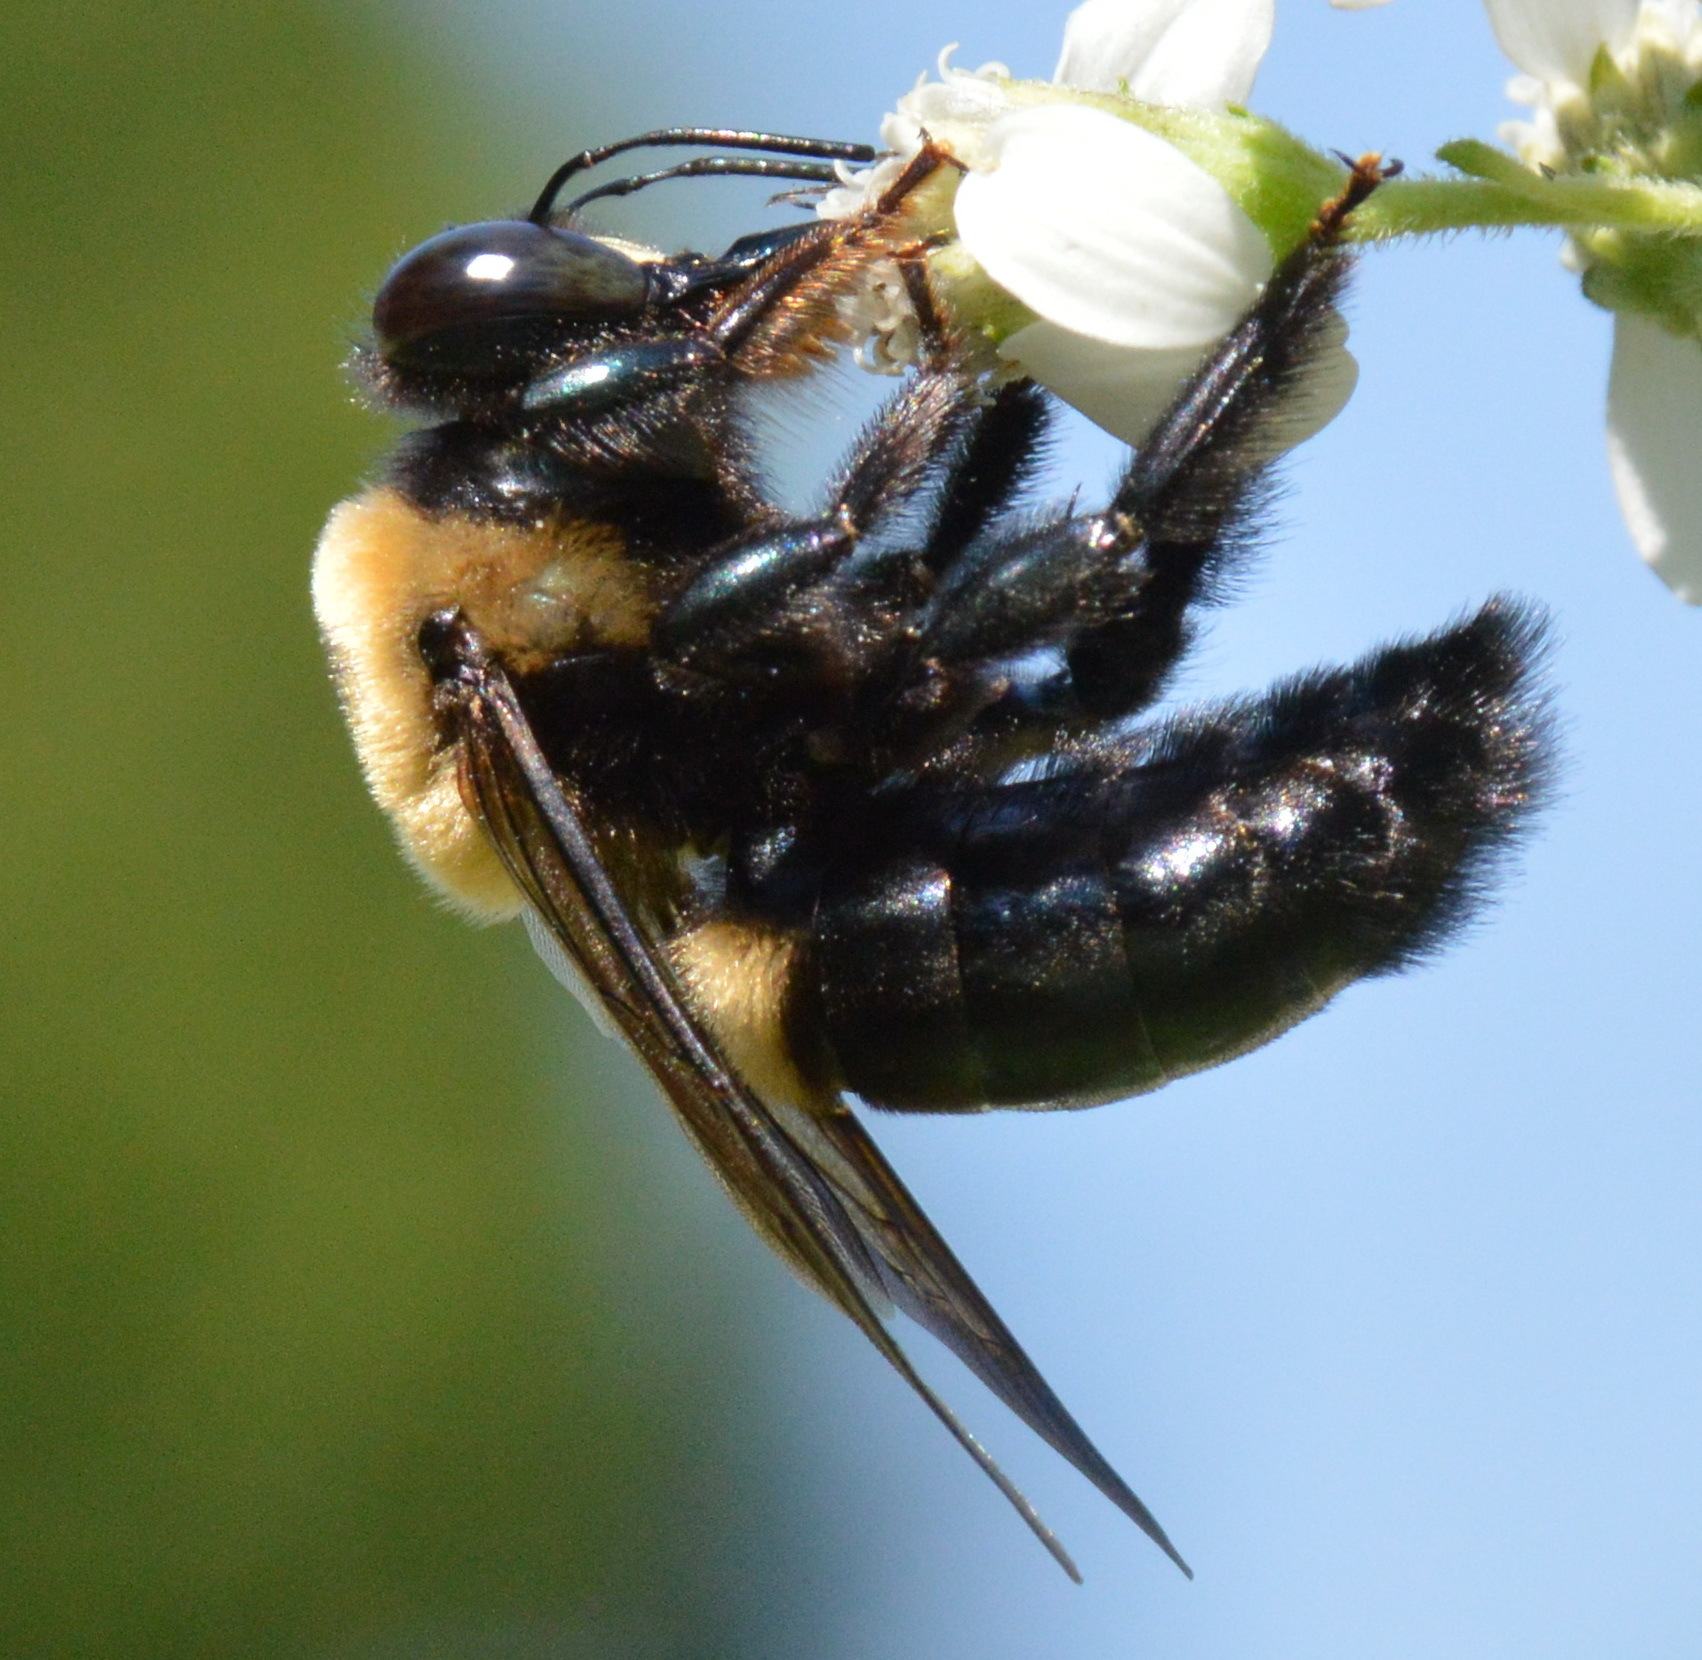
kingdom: Animalia
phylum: Arthropoda
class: Insecta
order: Hymenoptera
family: Apidae
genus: Xylocopa
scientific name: Xylocopa virginica
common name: Carpenter bee
